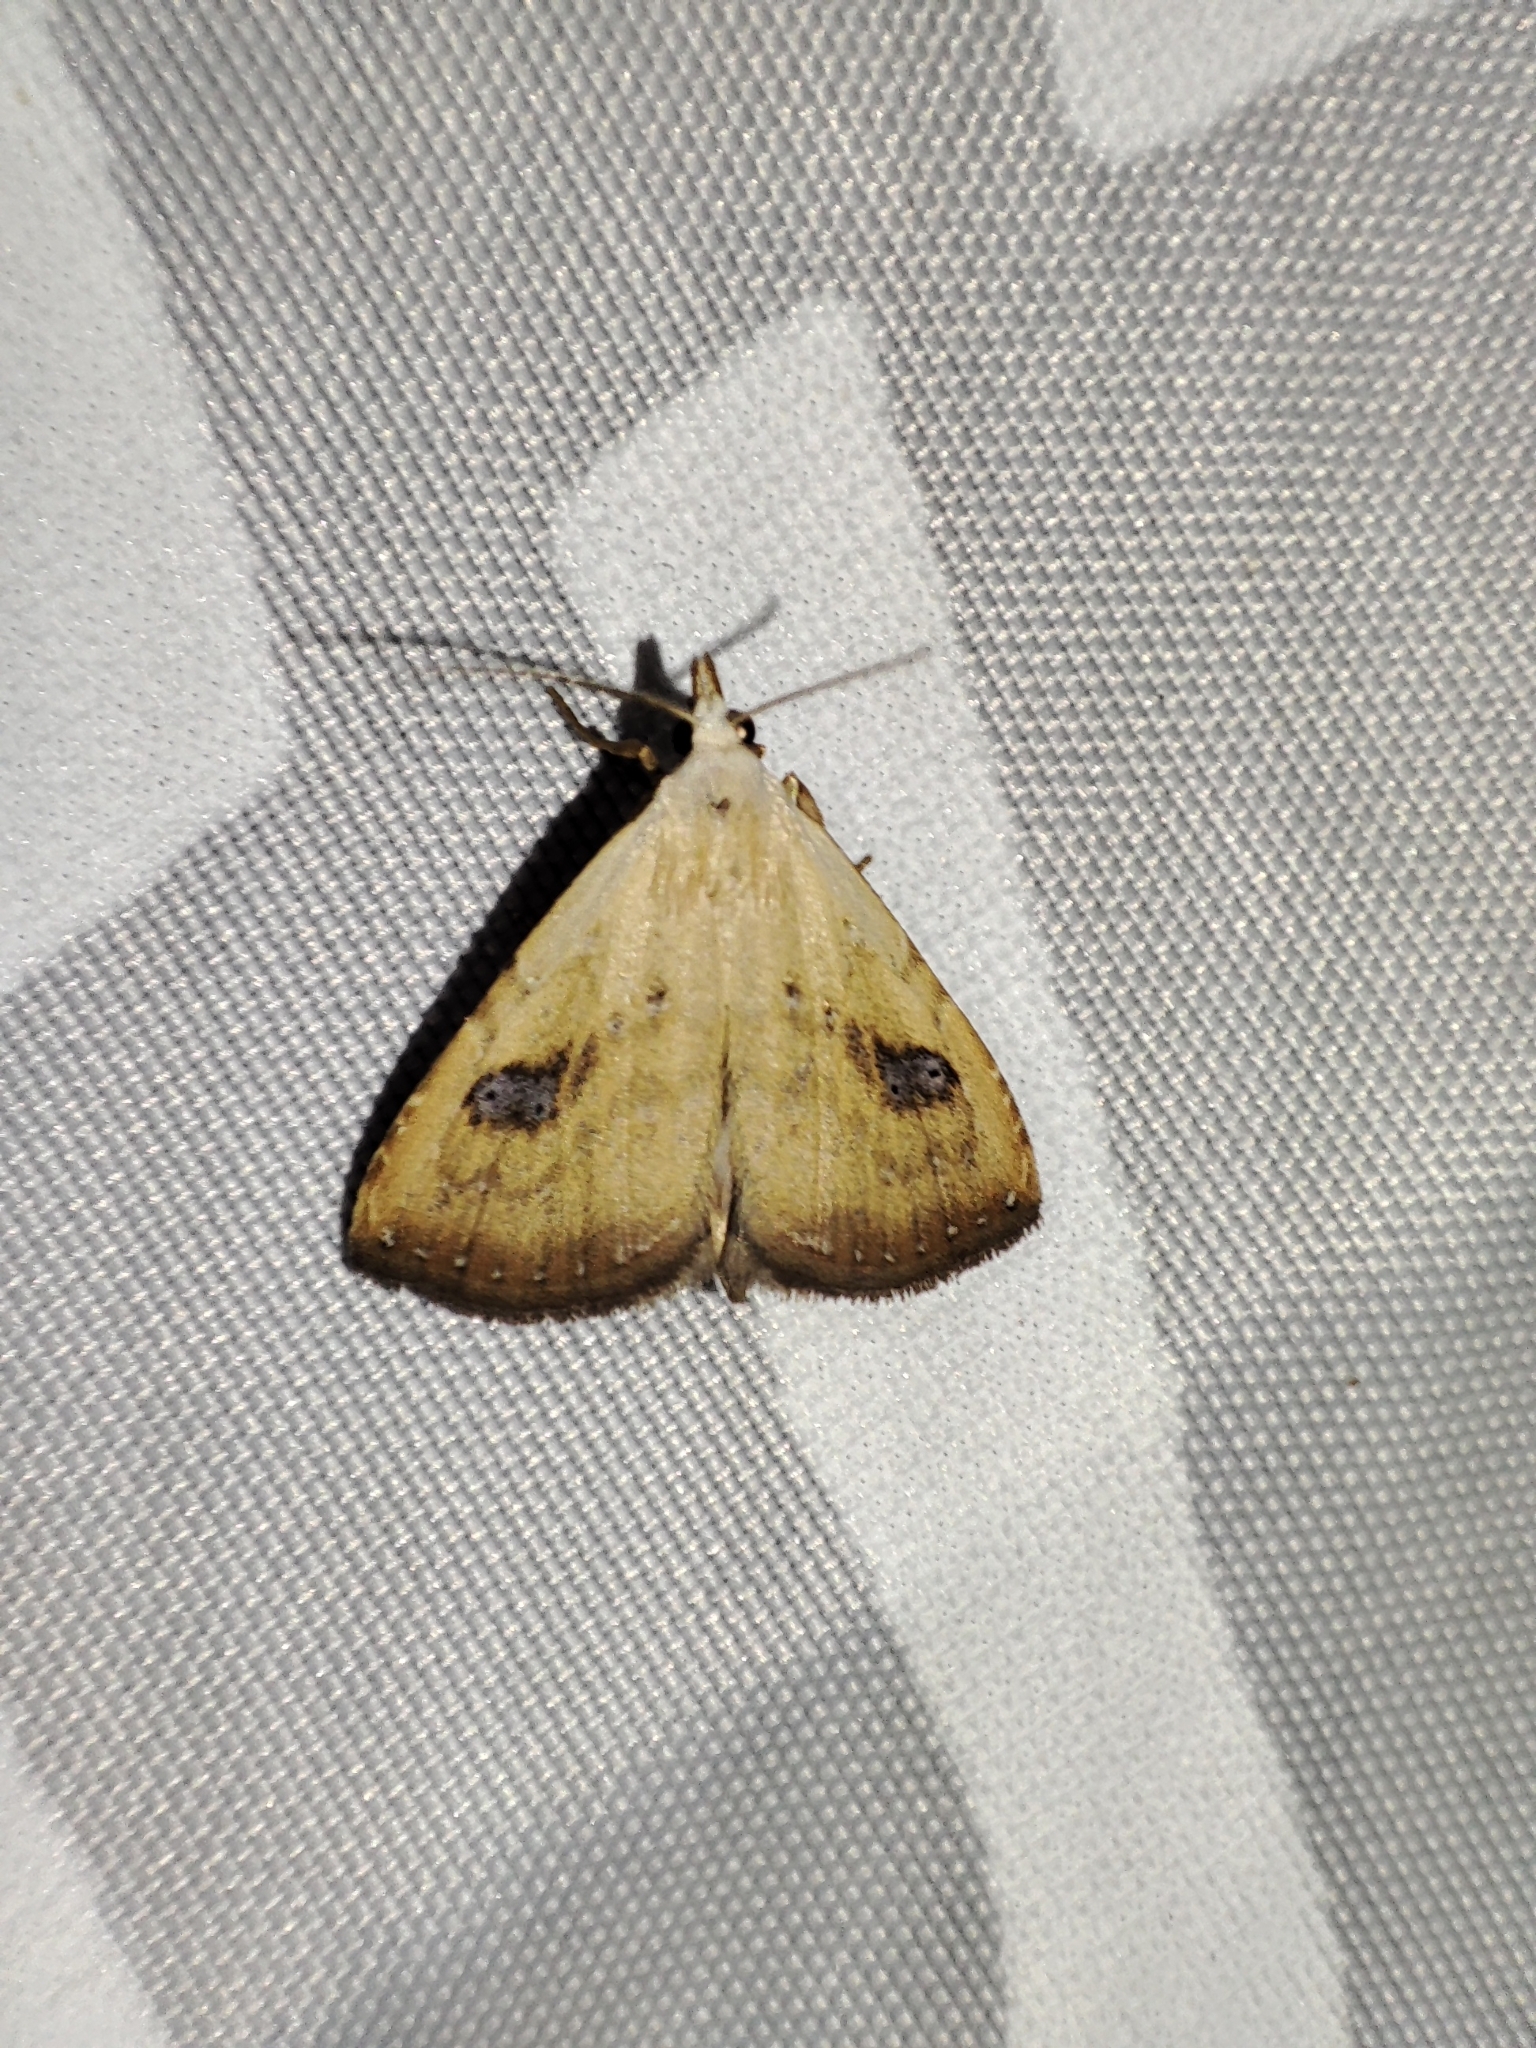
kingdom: Animalia
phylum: Arthropoda
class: Insecta
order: Lepidoptera
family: Erebidae
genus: Rivula
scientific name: Rivula sericealis
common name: Straw dot
